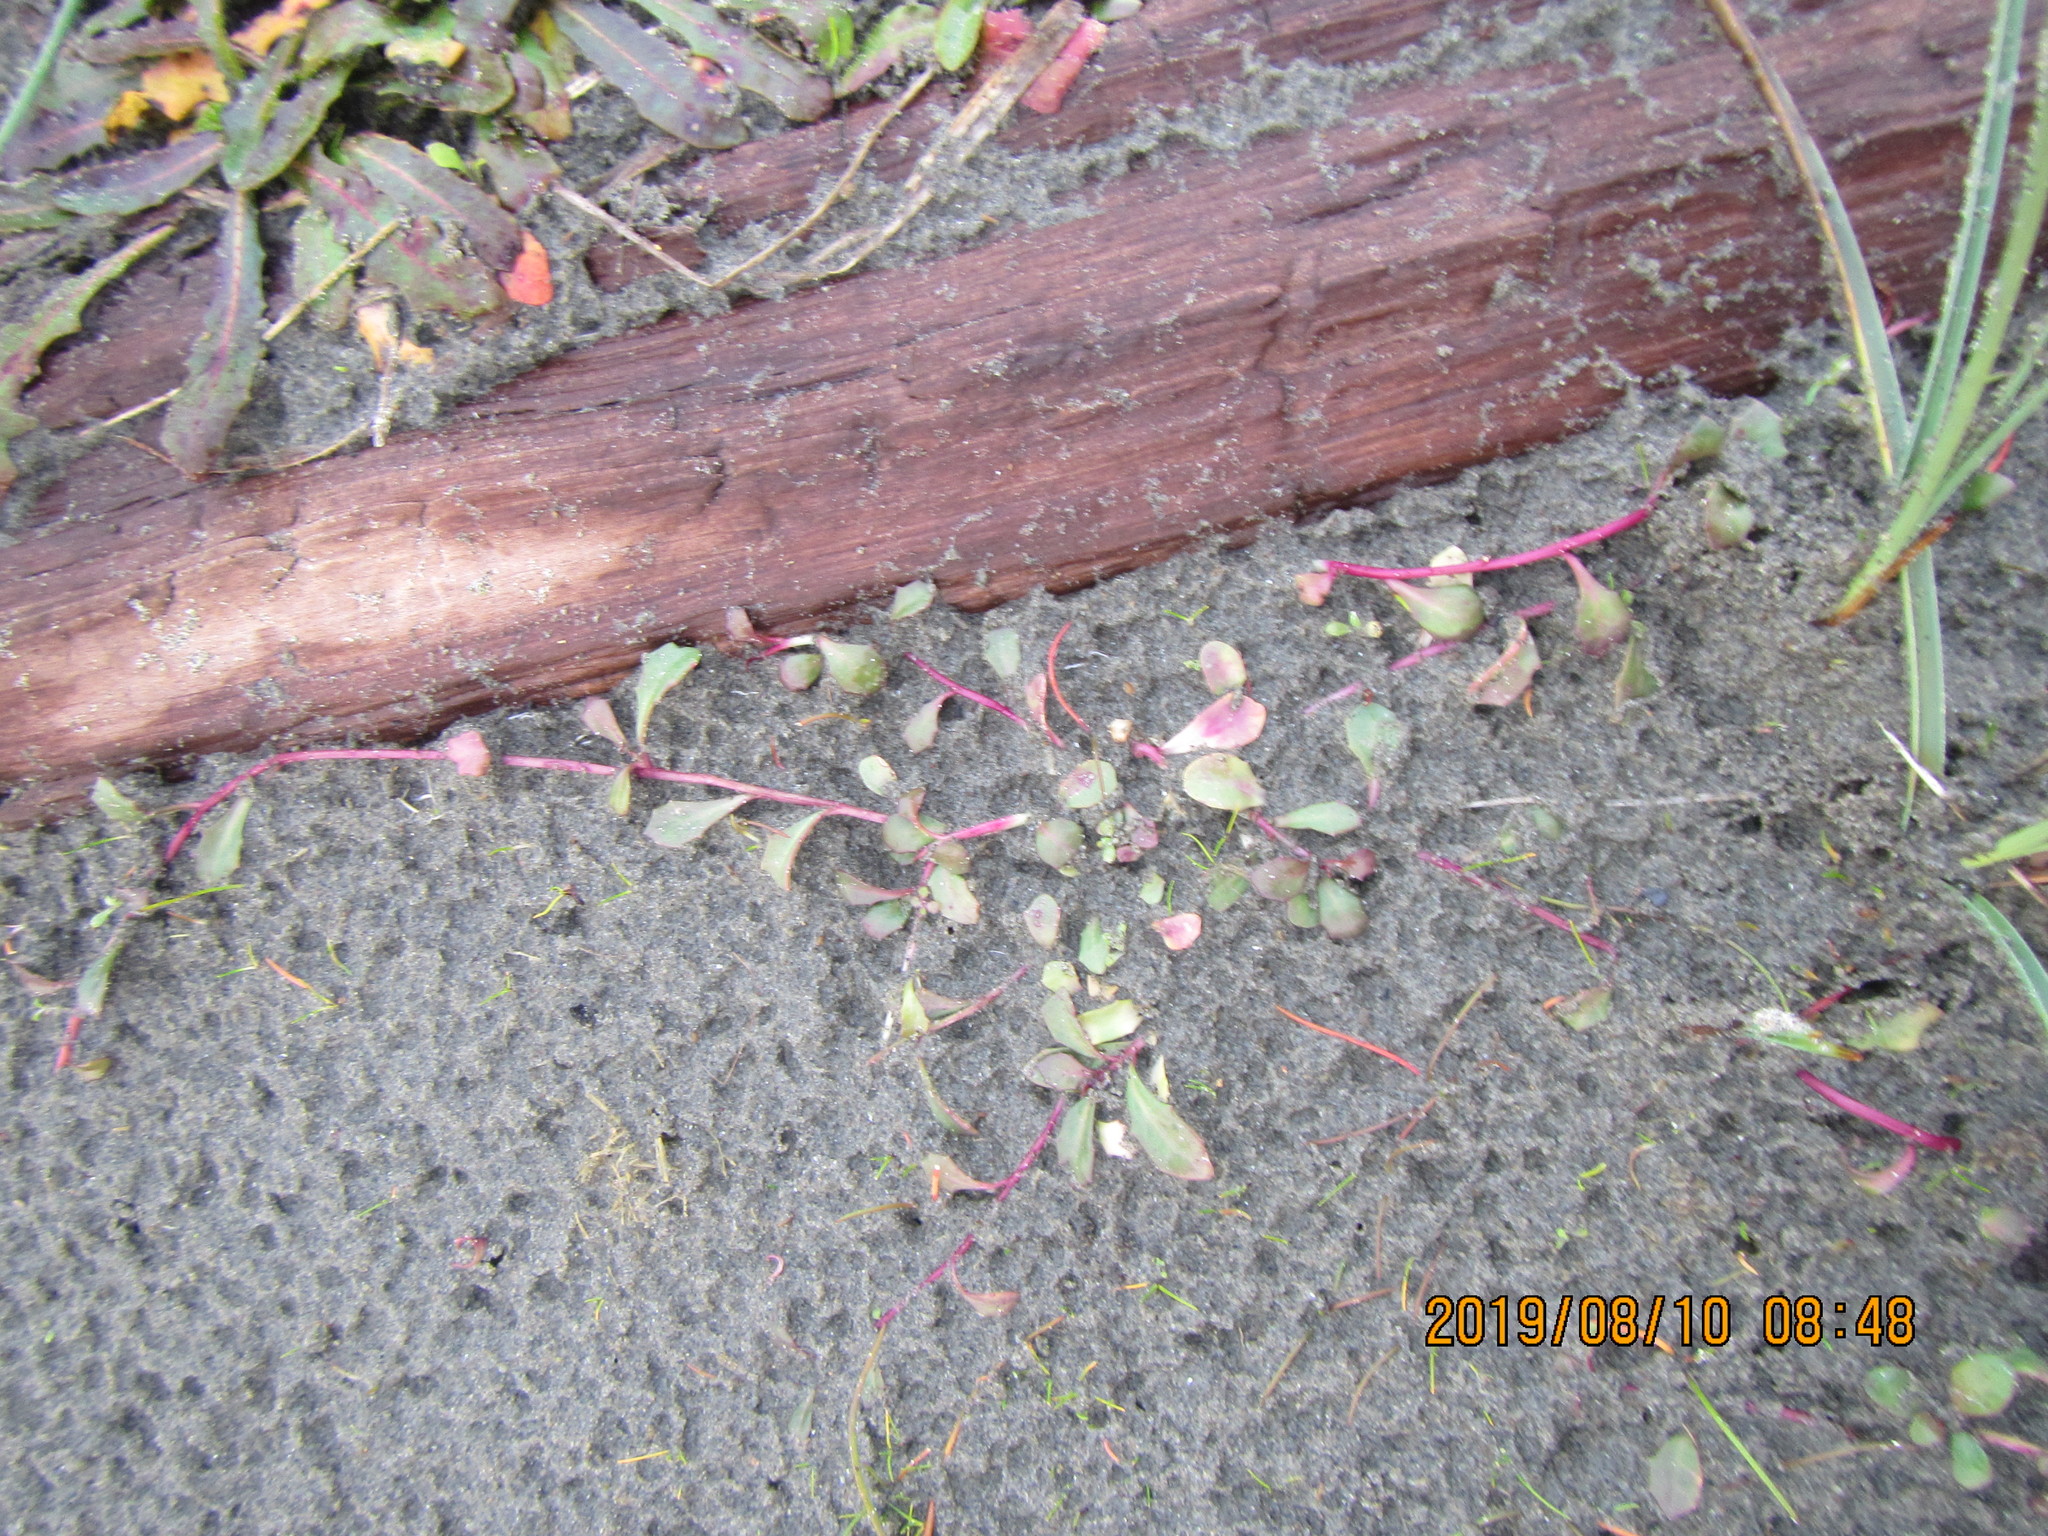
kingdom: Plantae
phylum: Tracheophyta
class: Magnoliopsida
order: Asterales
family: Campanulaceae
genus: Lobelia
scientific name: Lobelia anceps
